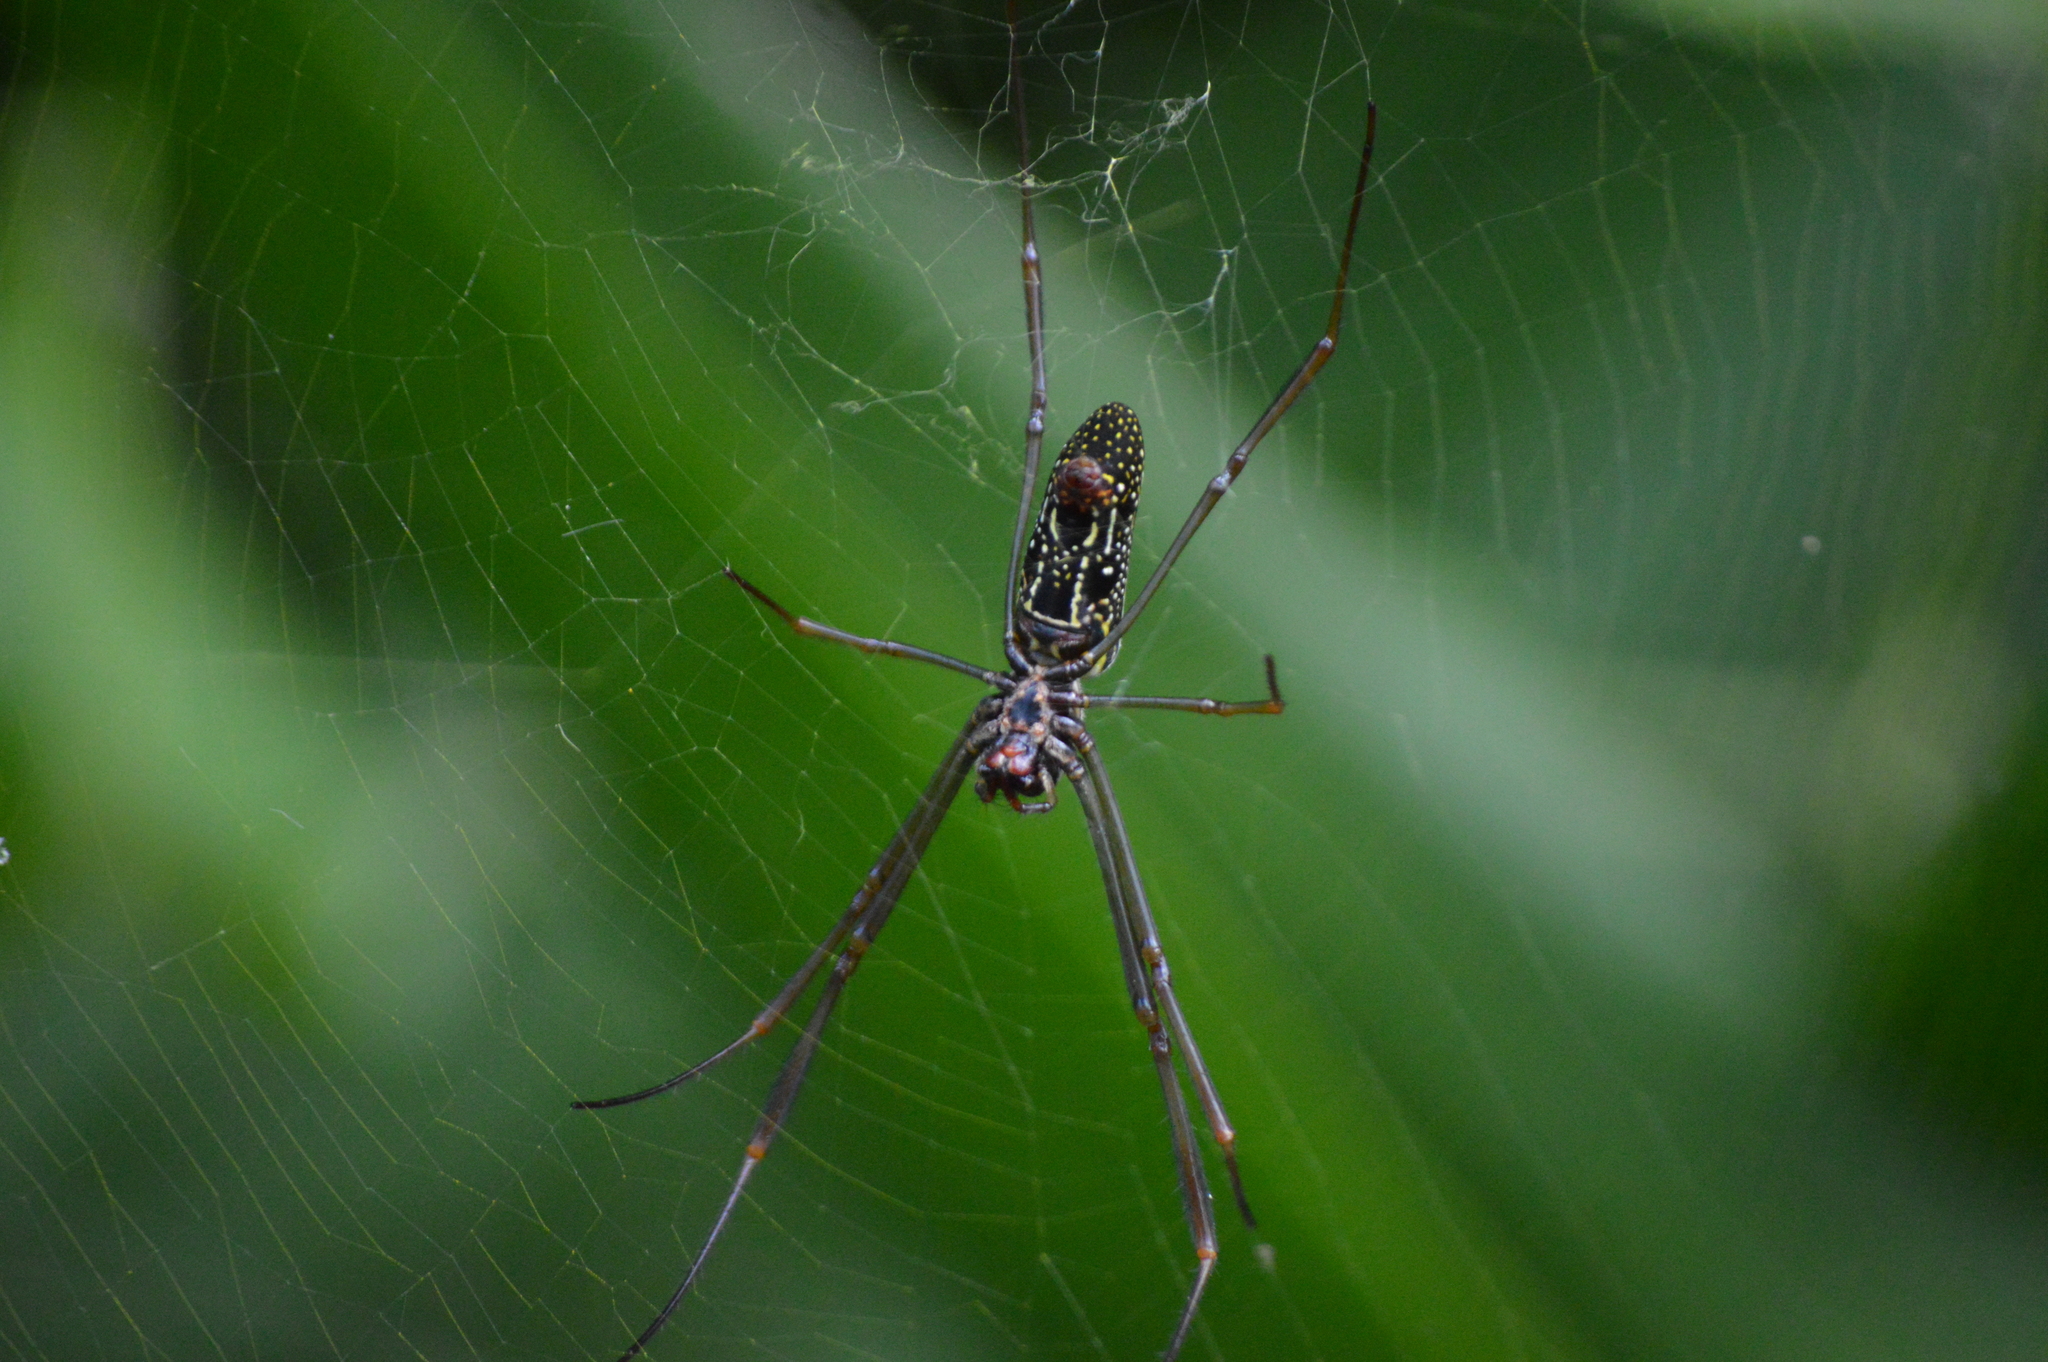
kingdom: Animalia
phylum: Arthropoda
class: Arachnida
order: Araneae
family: Araneidae
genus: Trichonephila
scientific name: Trichonephila clavipes
